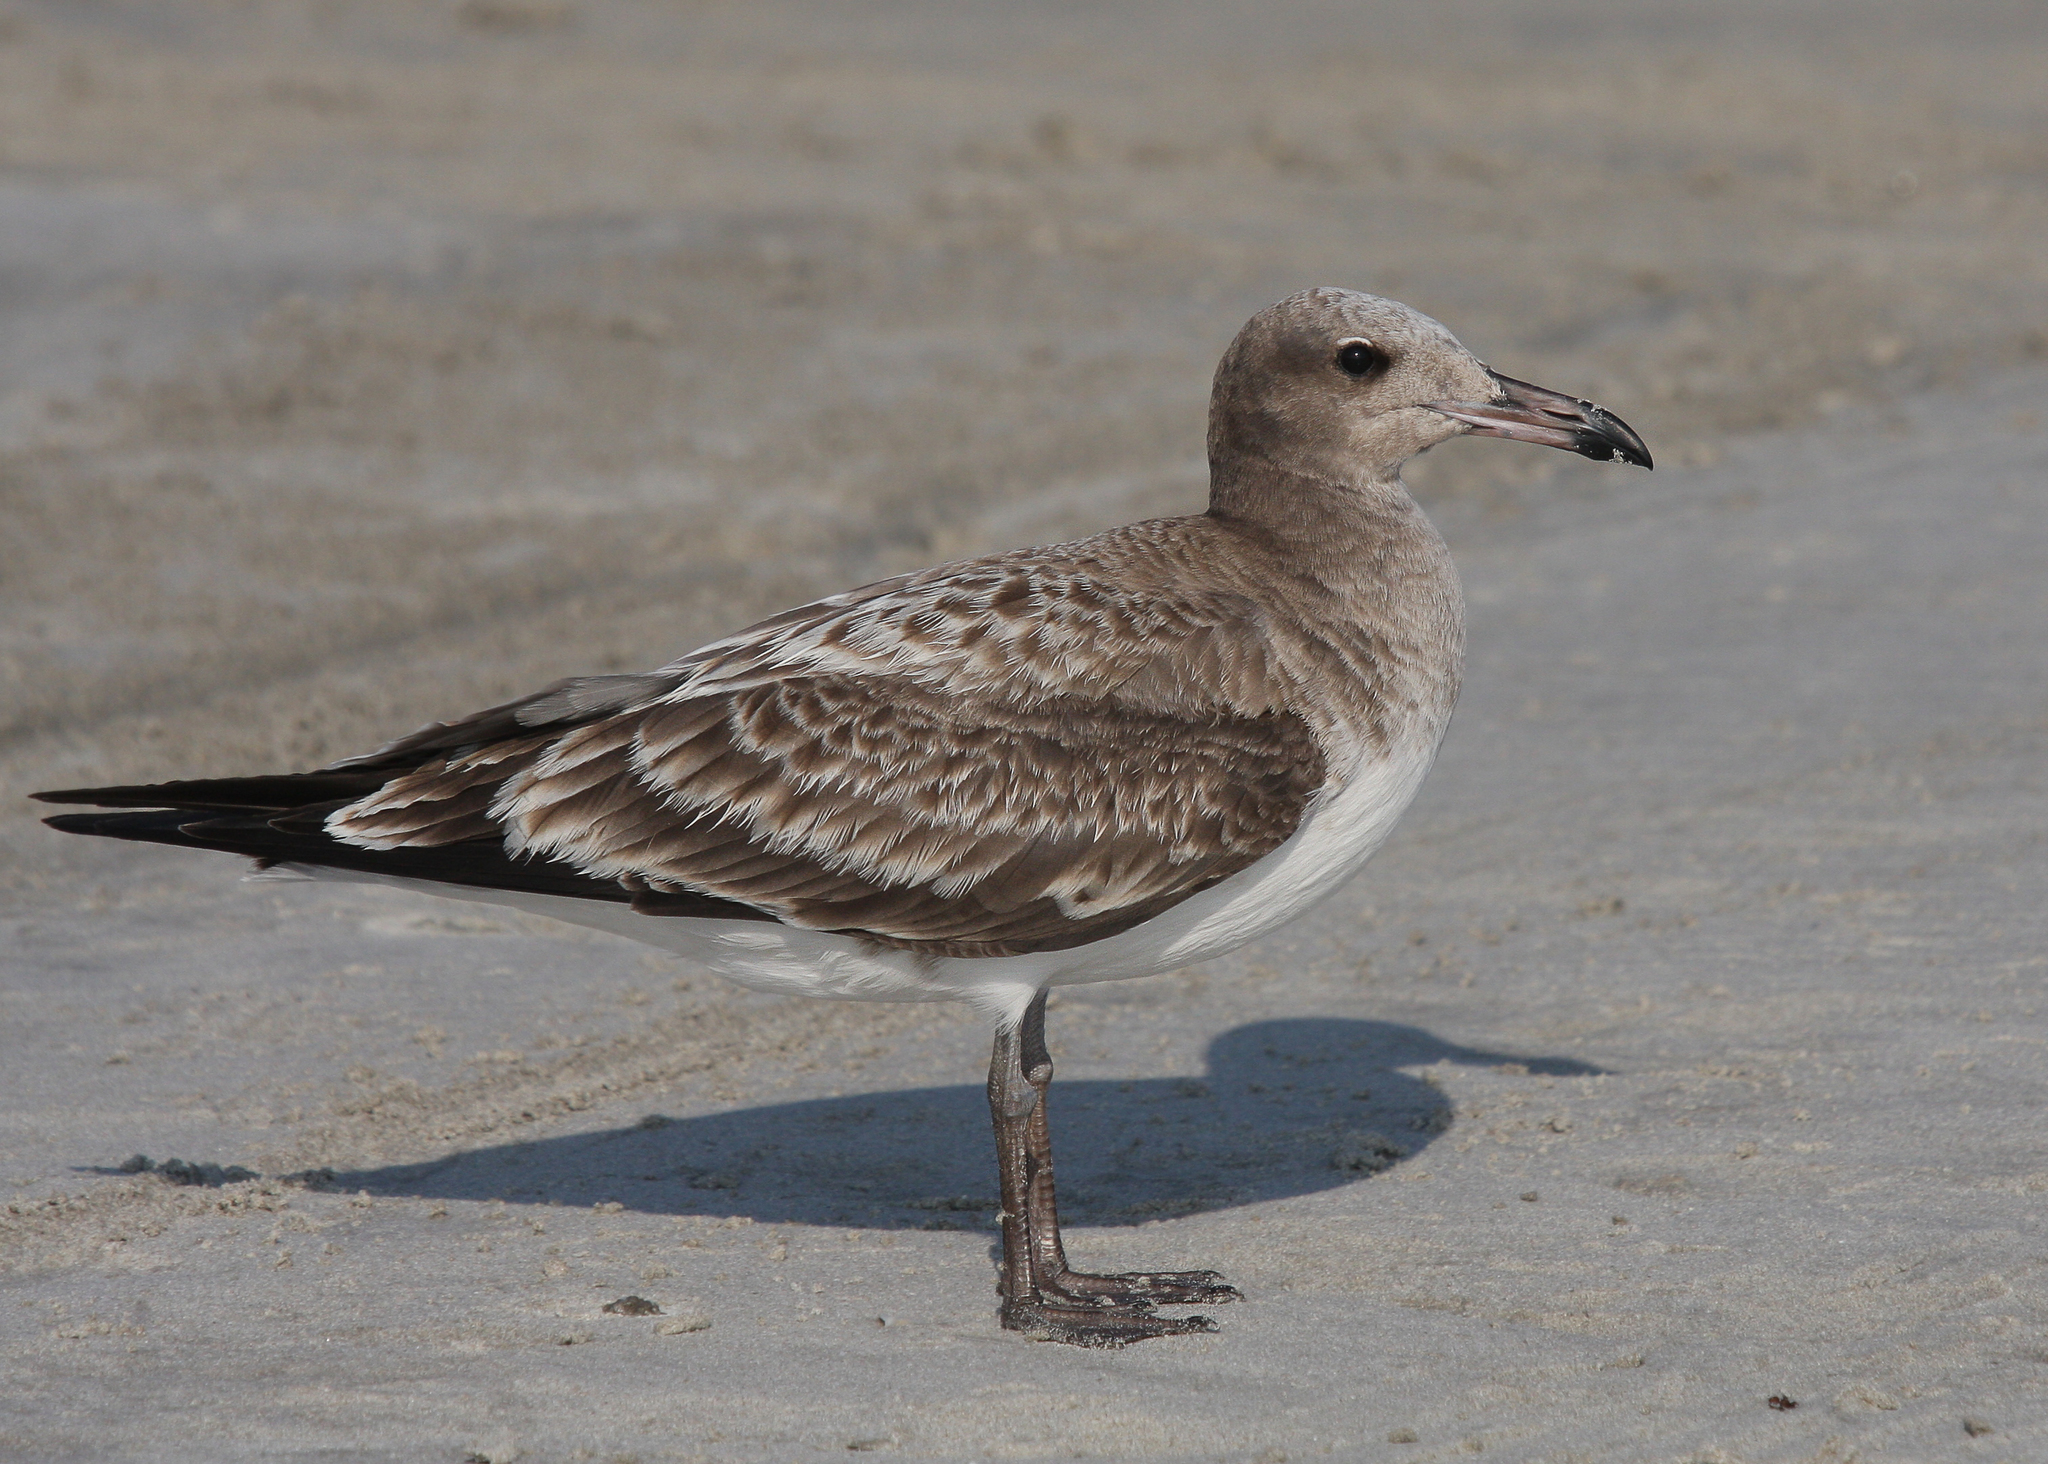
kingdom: Animalia
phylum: Chordata
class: Aves
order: Charadriiformes
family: Laridae
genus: Ichthyaetus
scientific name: Ichthyaetus hemprichii
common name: Sooty gull
